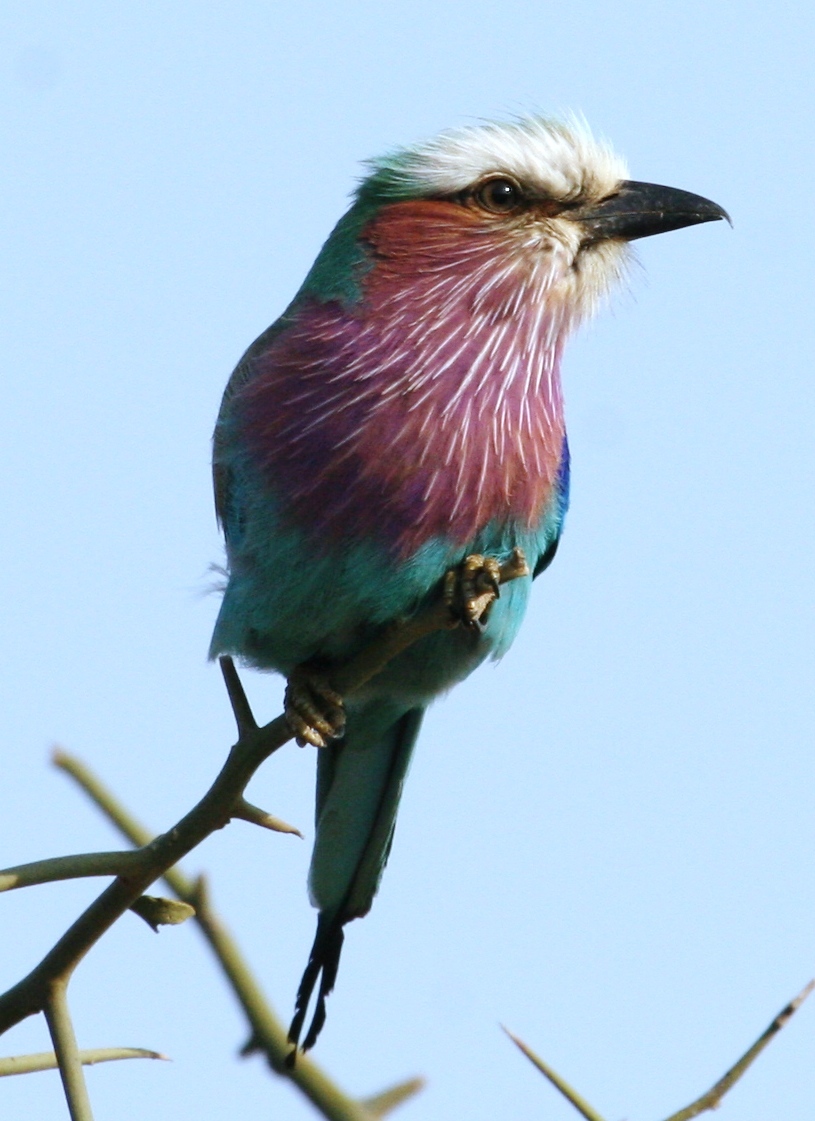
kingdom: Animalia
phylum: Chordata
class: Aves
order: Coraciiformes
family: Coraciidae
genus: Coracias
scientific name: Coracias caudatus
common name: Lilac-breasted roller
